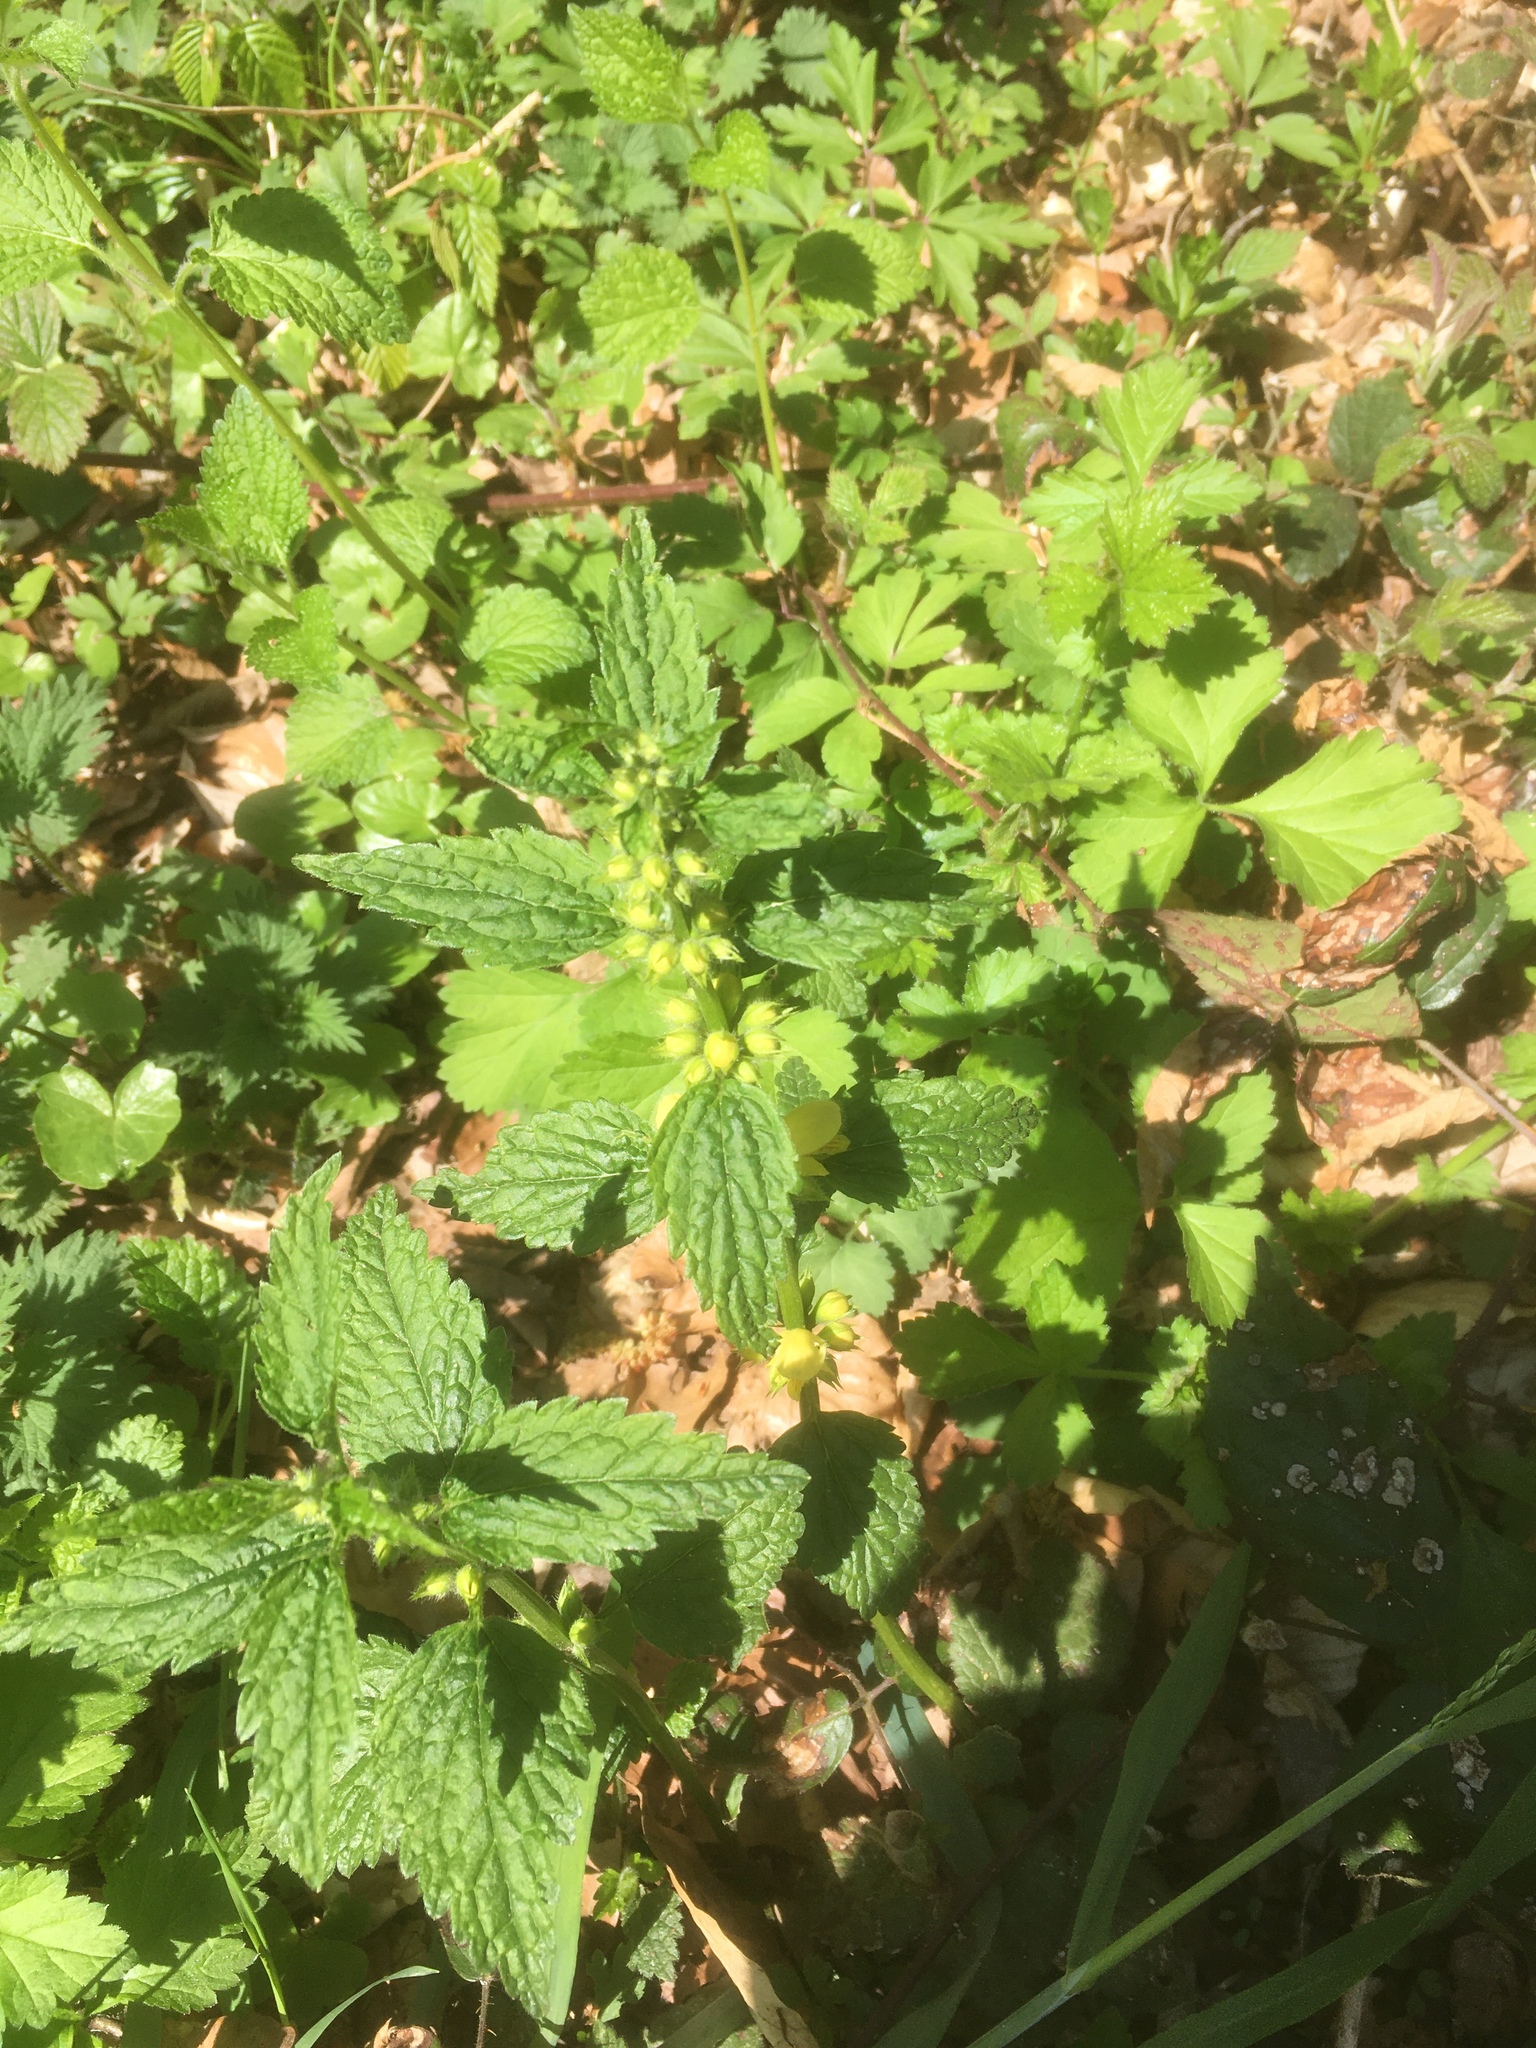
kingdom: Plantae
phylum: Tracheophyta
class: Magnoliopsida
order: Lamiales
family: Lamiaceae
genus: Lamium
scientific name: Lamium galeobdolon
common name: Yellow archangel
